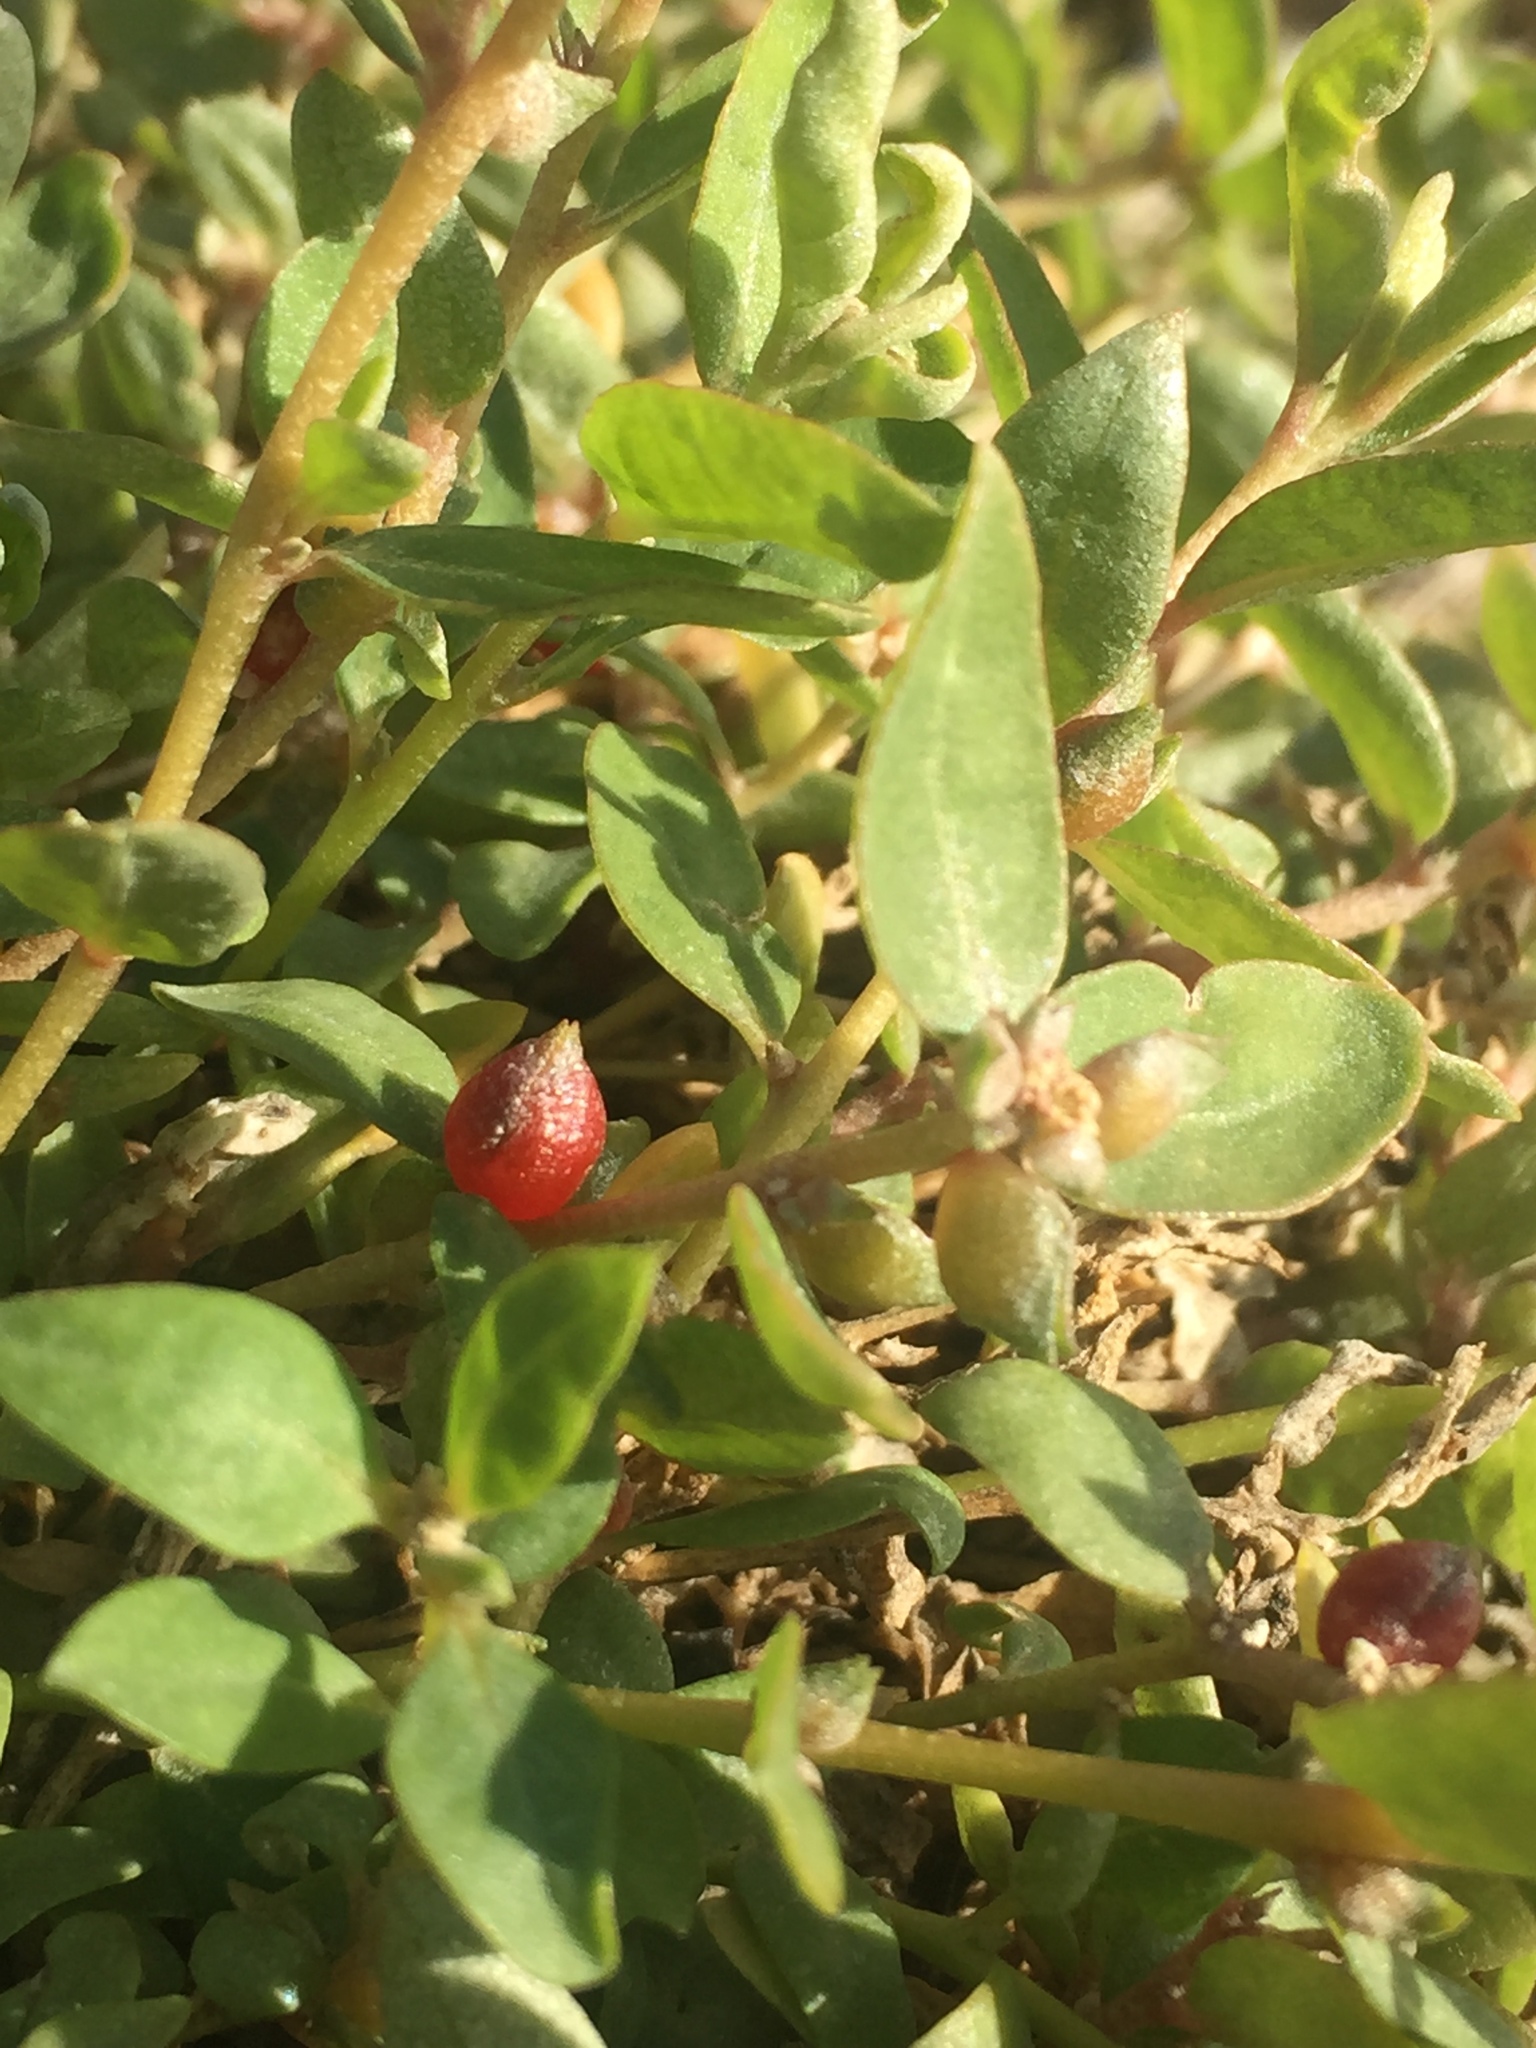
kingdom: Plantae
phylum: Tracheophyta
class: Magnoliopsida
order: Caryophyllales
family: Amaranthaceae
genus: Atriplex
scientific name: Atriplex semibaccata
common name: Australian saltbush
